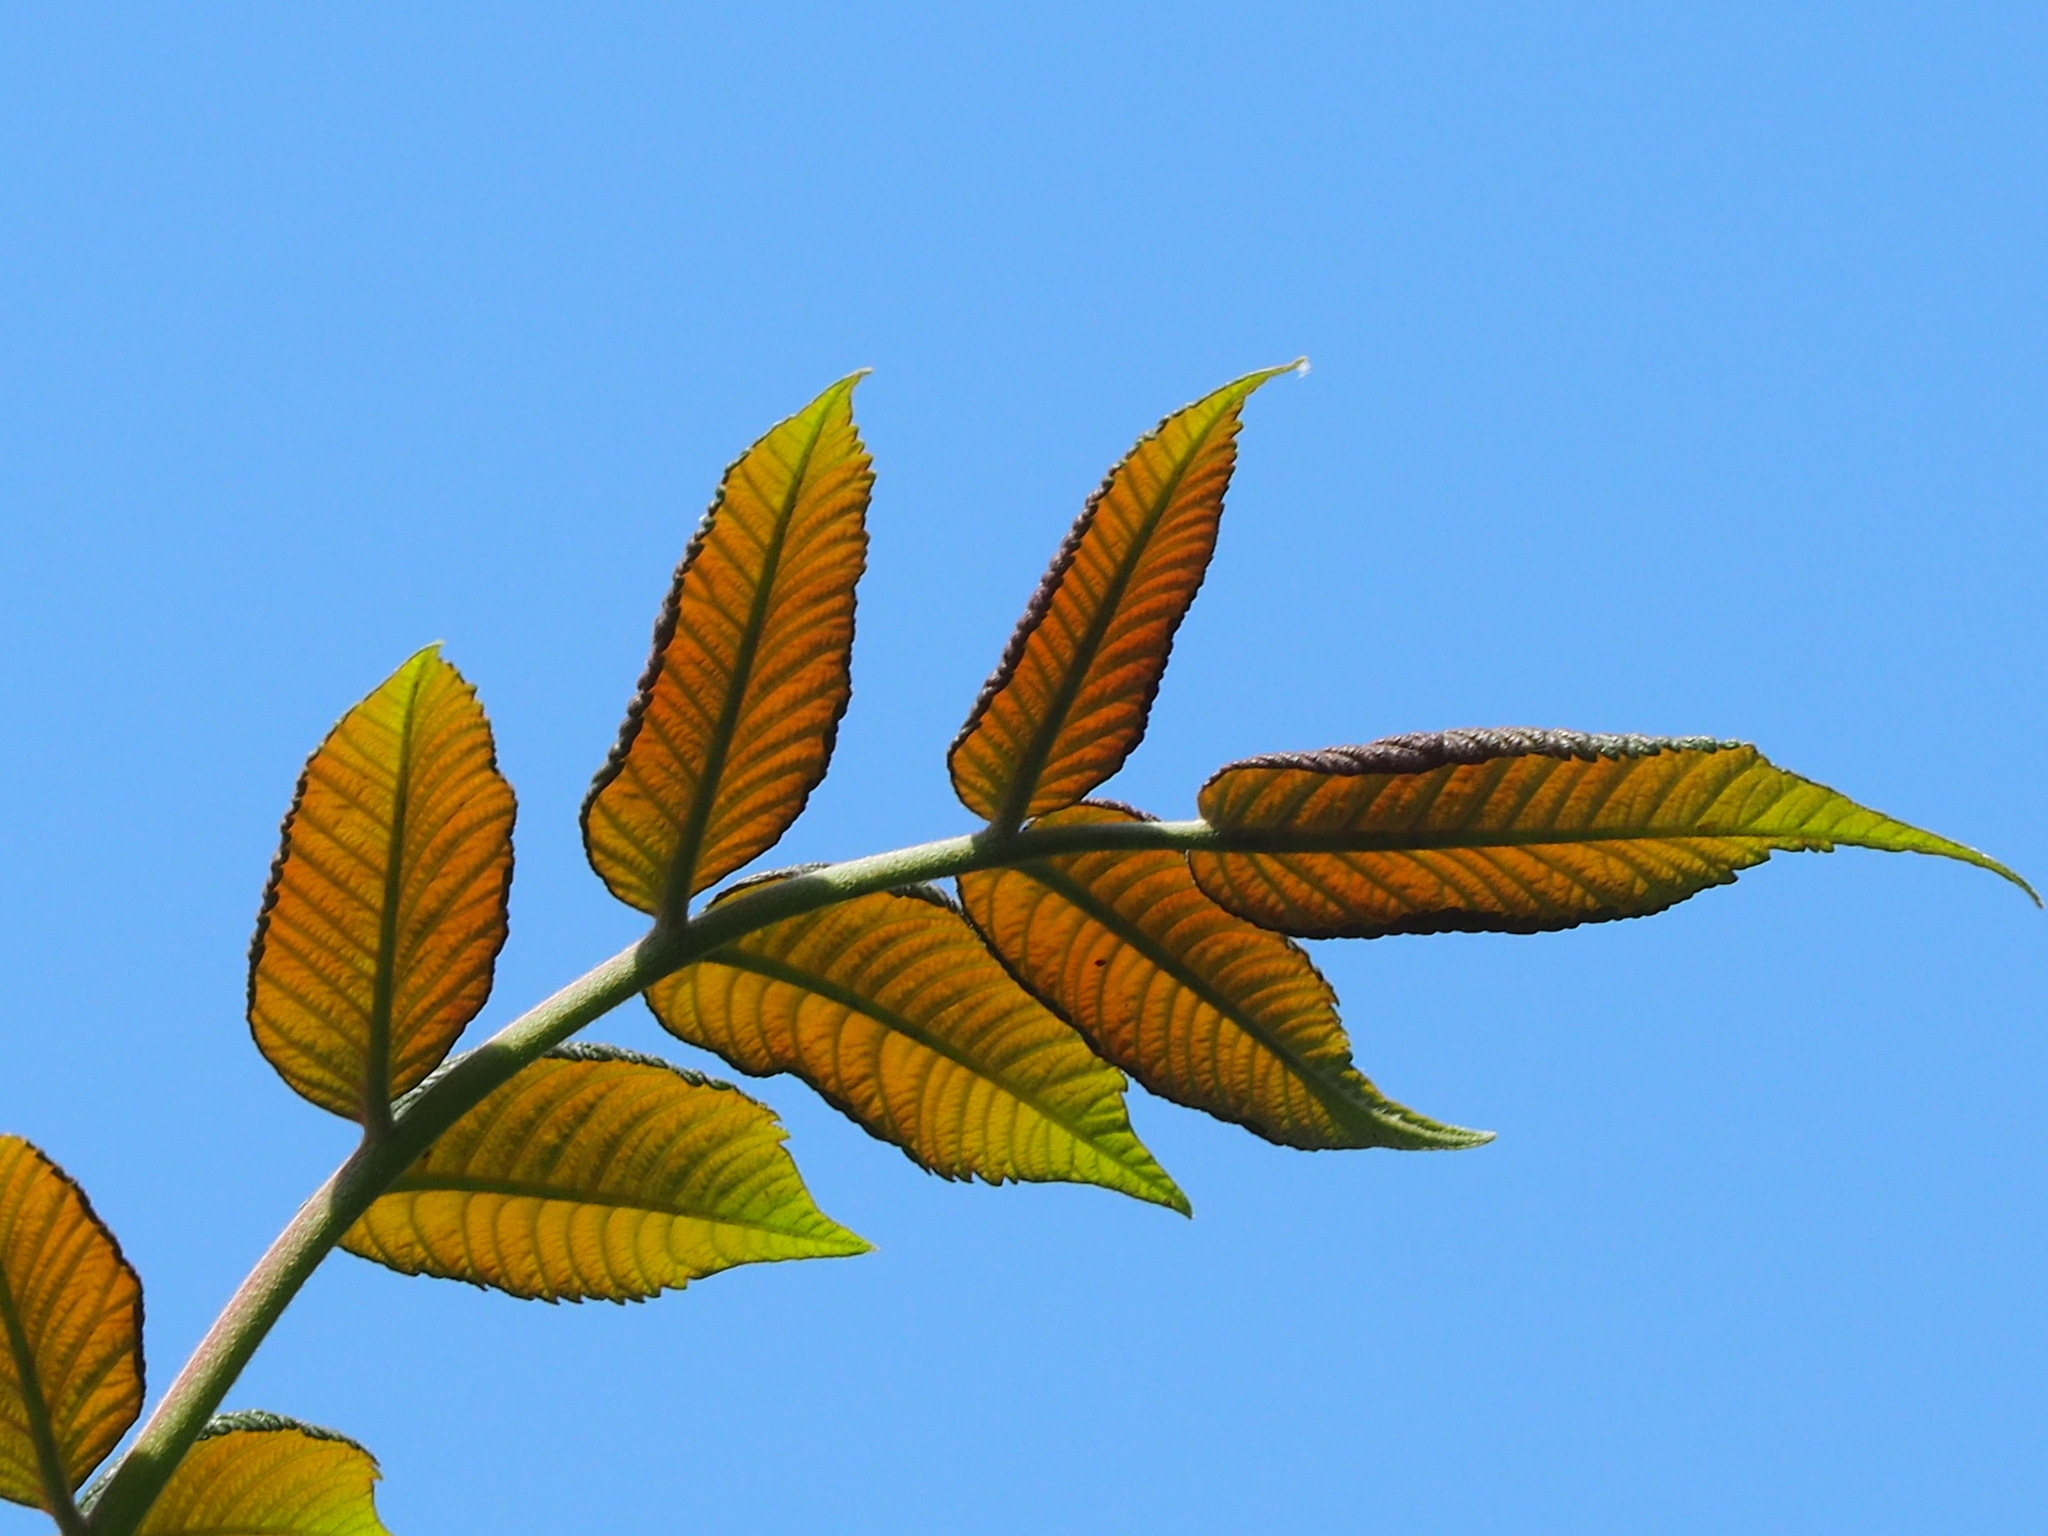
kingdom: Plantae
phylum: Tracheophyta
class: Magnoliopsida
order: Sapindales
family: Anacardiaceae
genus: Rhus
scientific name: Rhus chinensis
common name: Chinese gall
